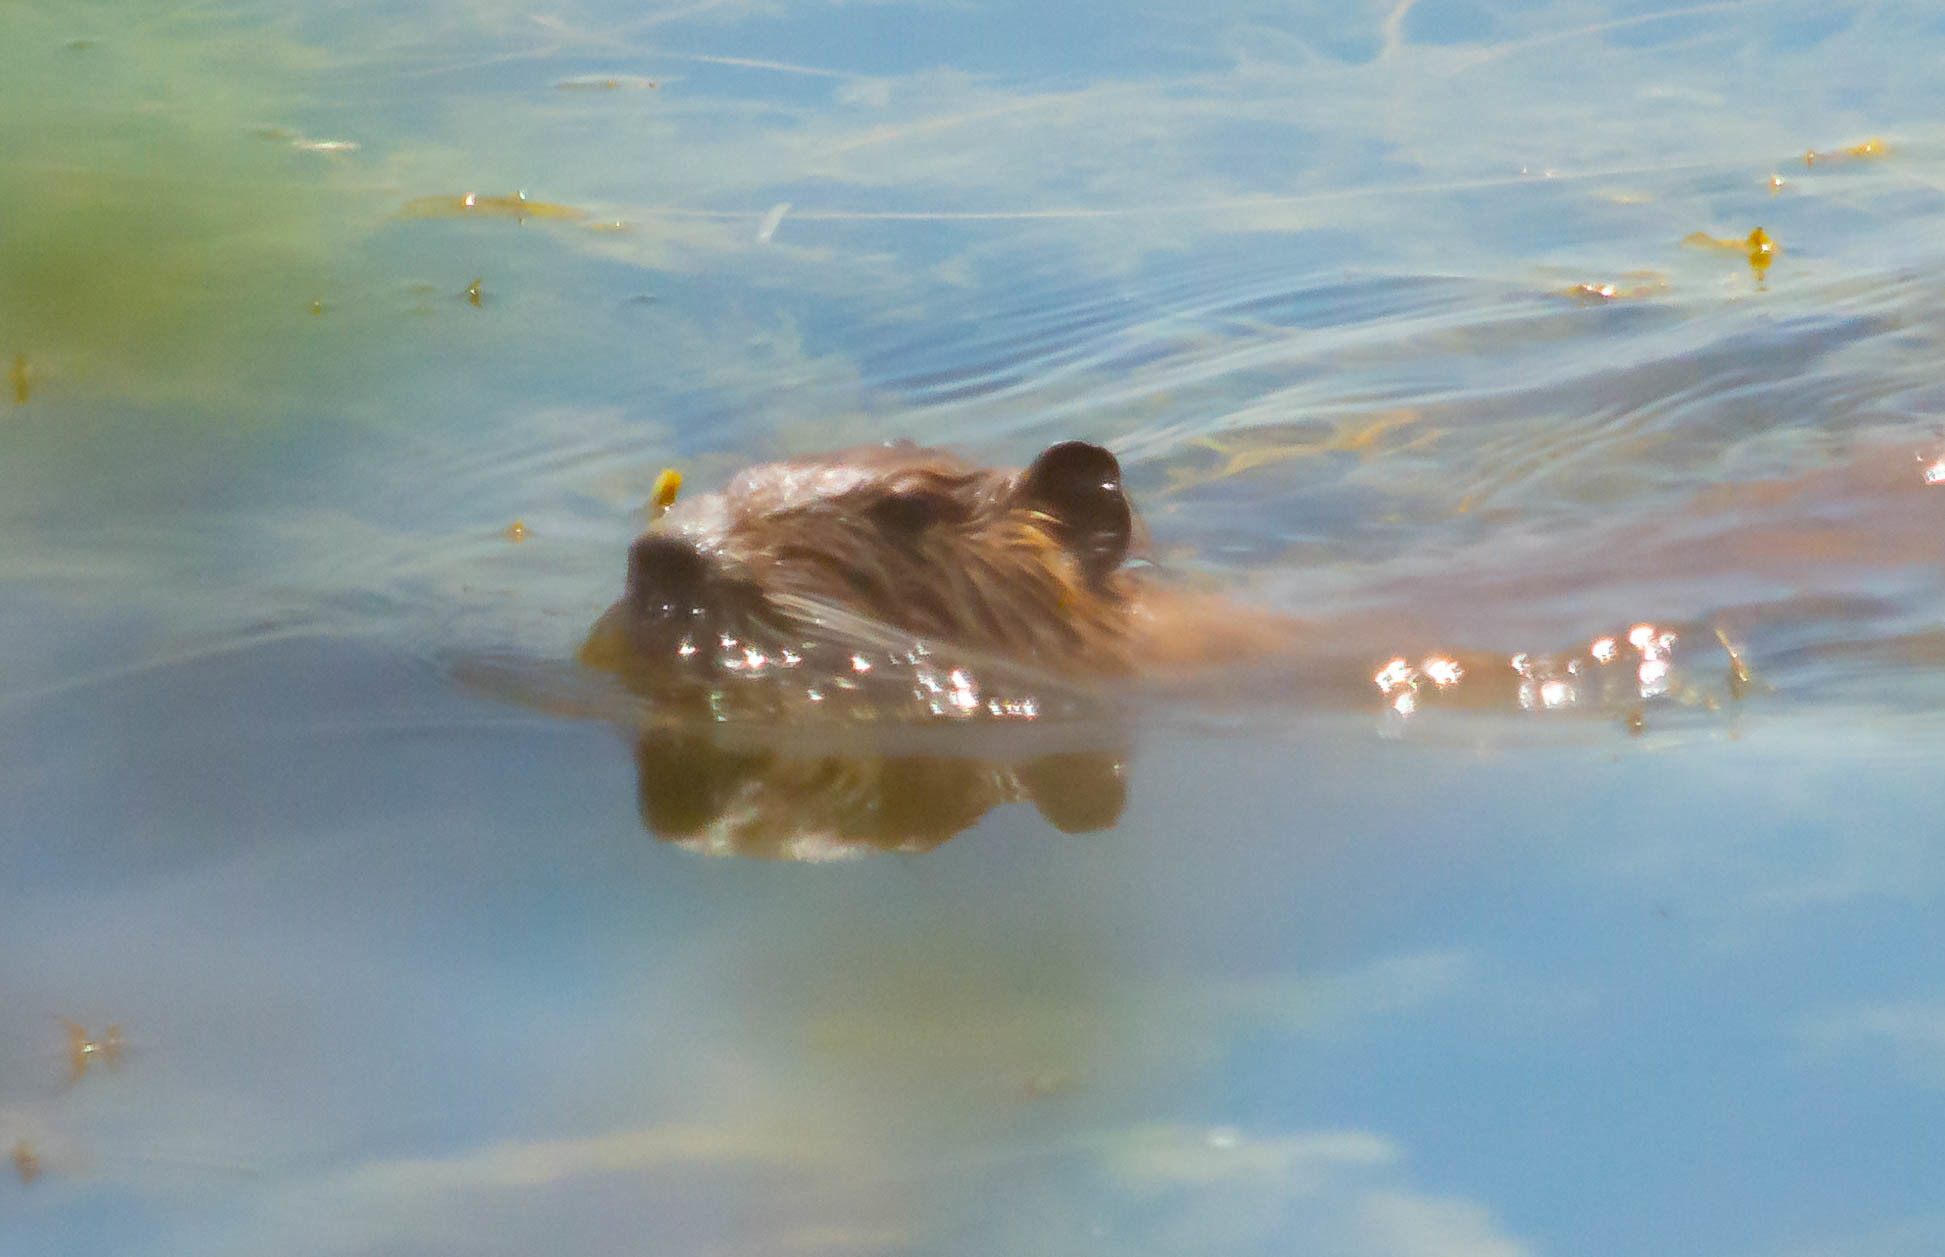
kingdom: Animalia
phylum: Chordata
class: Mammalia
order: Rodentia
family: Myocastoridae
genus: Myocastor
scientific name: Myocastor coypus
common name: Coypu
